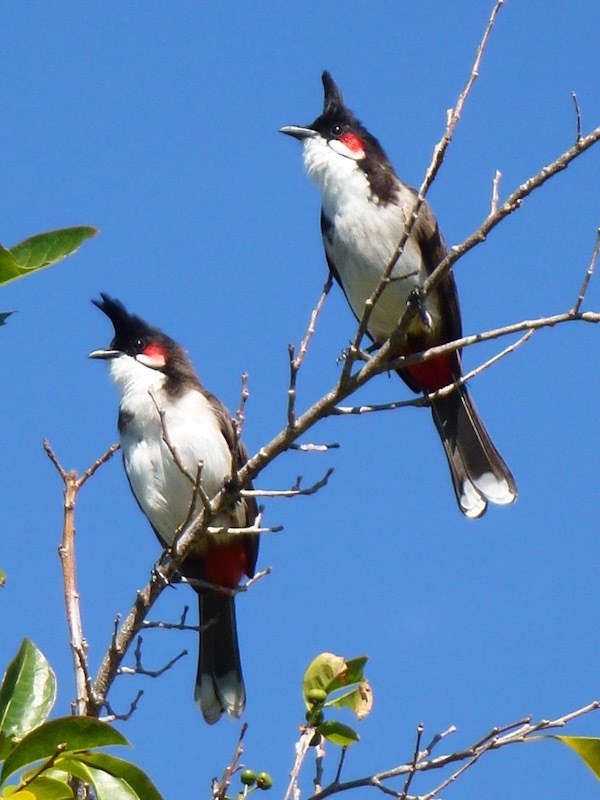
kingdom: Animalia
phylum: Chordata
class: Aves
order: Passeriformes
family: Pycnonotidae
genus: Pycnonotus
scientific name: Pycnonotus jocosus
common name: Red-whiskered bulbul
